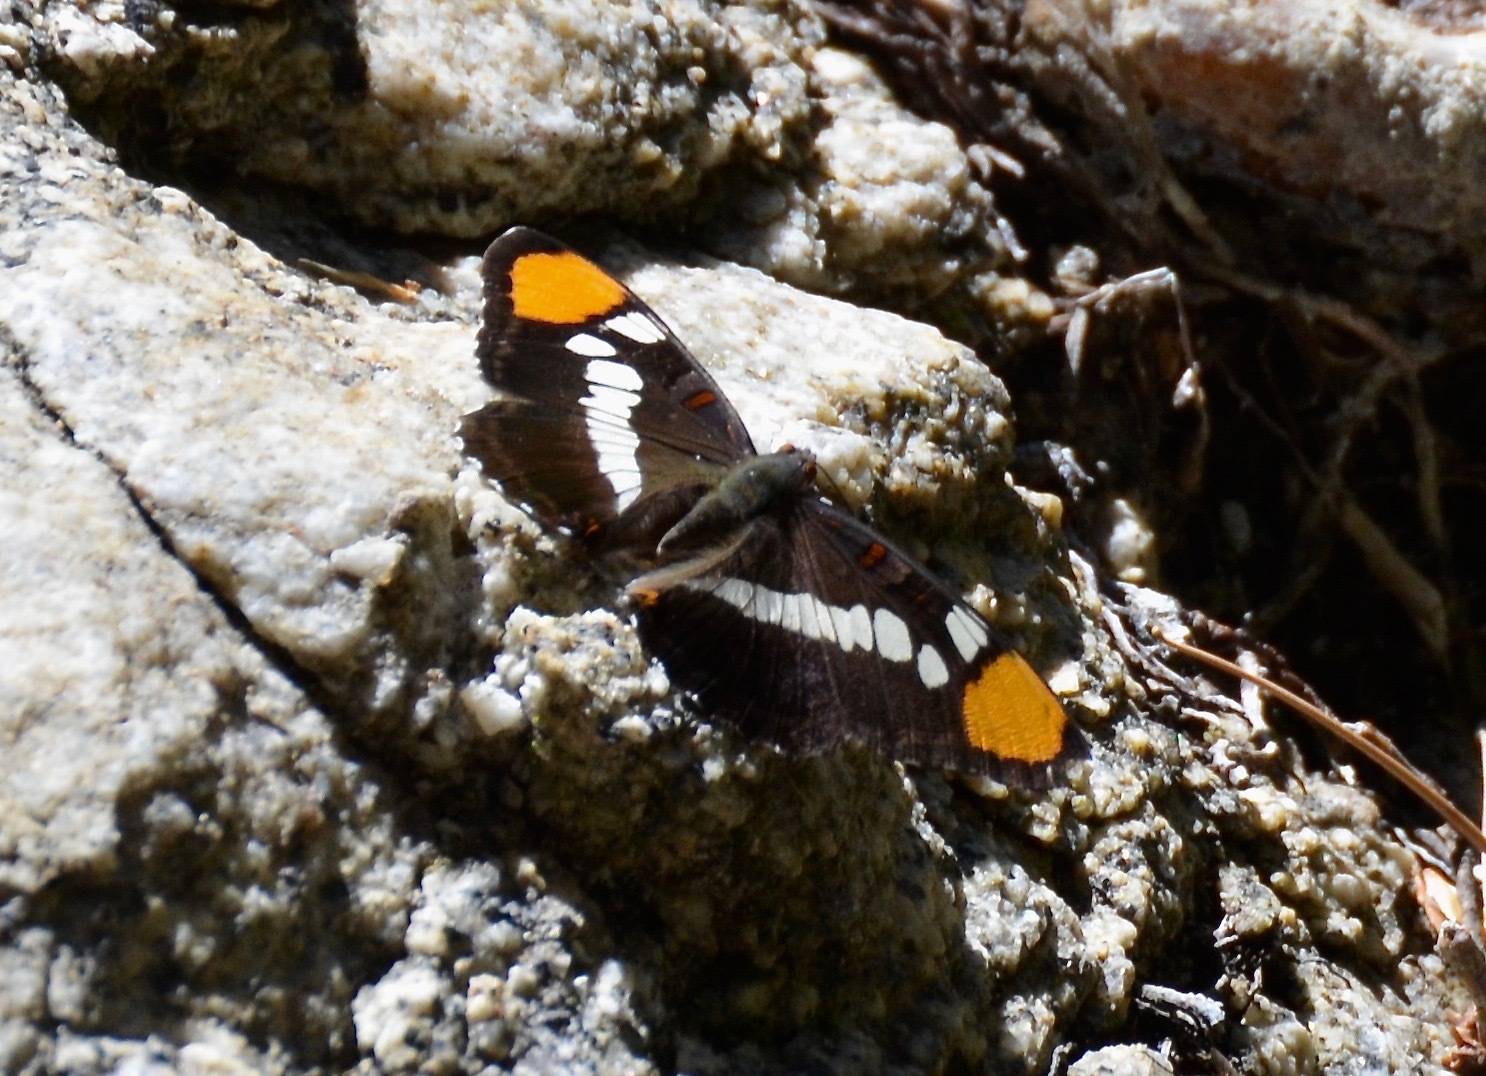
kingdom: Animalia
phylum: Arthropoda
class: Insecta
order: Lepidoptera
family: Nymphalidae
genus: Limenitis
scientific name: Limenitis bredowii
